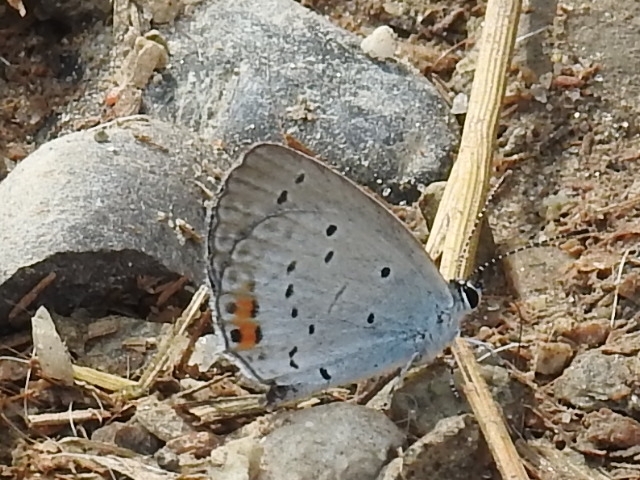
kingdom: Animalia
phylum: Arthropoda
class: Insecta
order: Lepidoptera
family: Lycaenidae
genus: Elkalyce
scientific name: Elkalyce argiades
